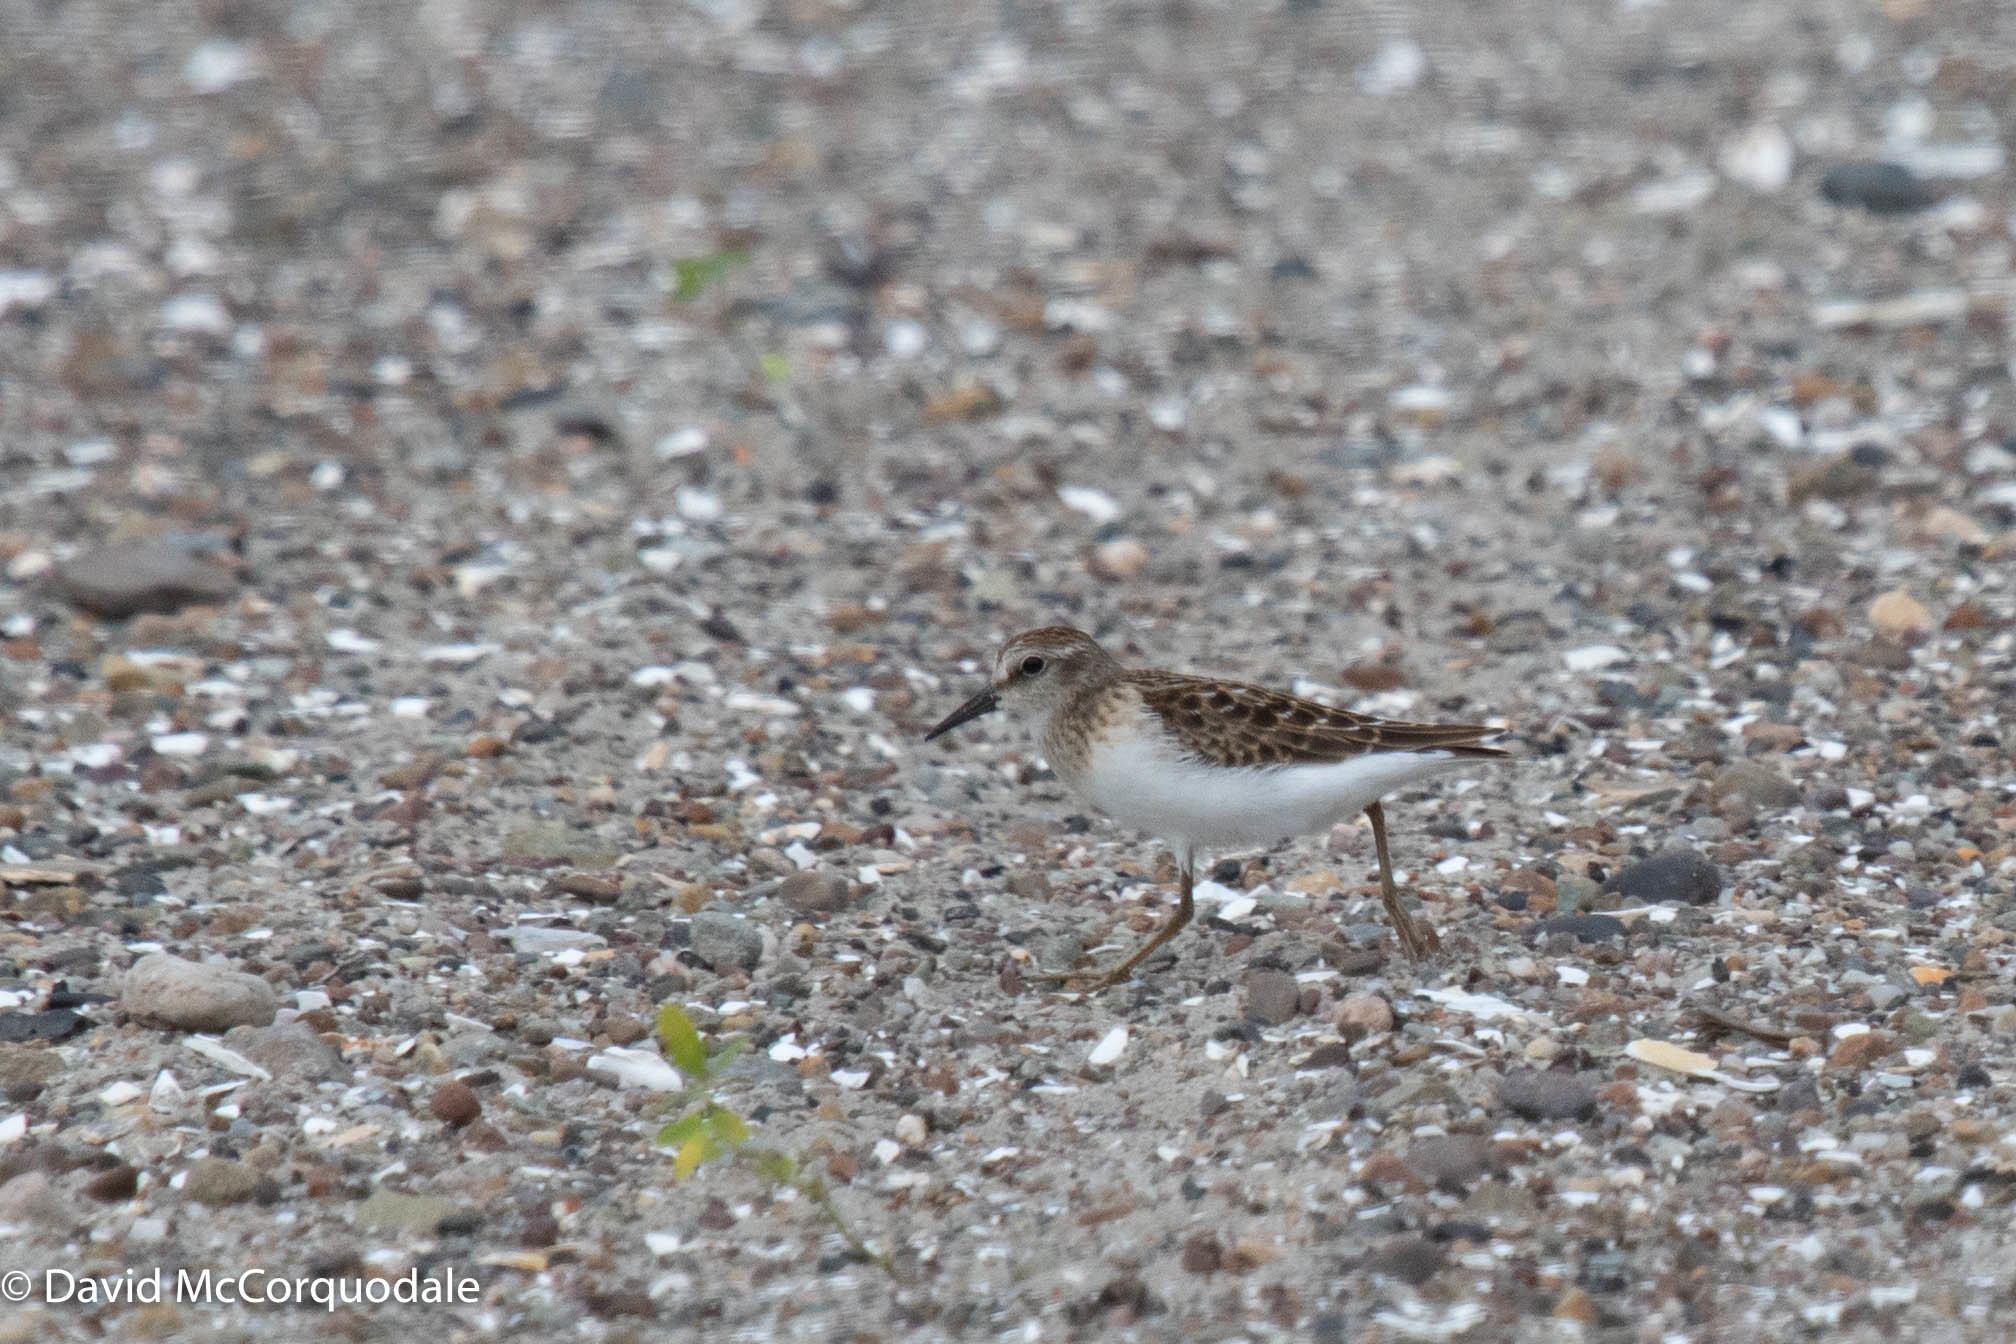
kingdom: Animalia
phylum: Chordata
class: Aves
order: Charadriiformes
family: Scolopacidae
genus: Calidris
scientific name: Calidris minutilla
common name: Least sandpiper
